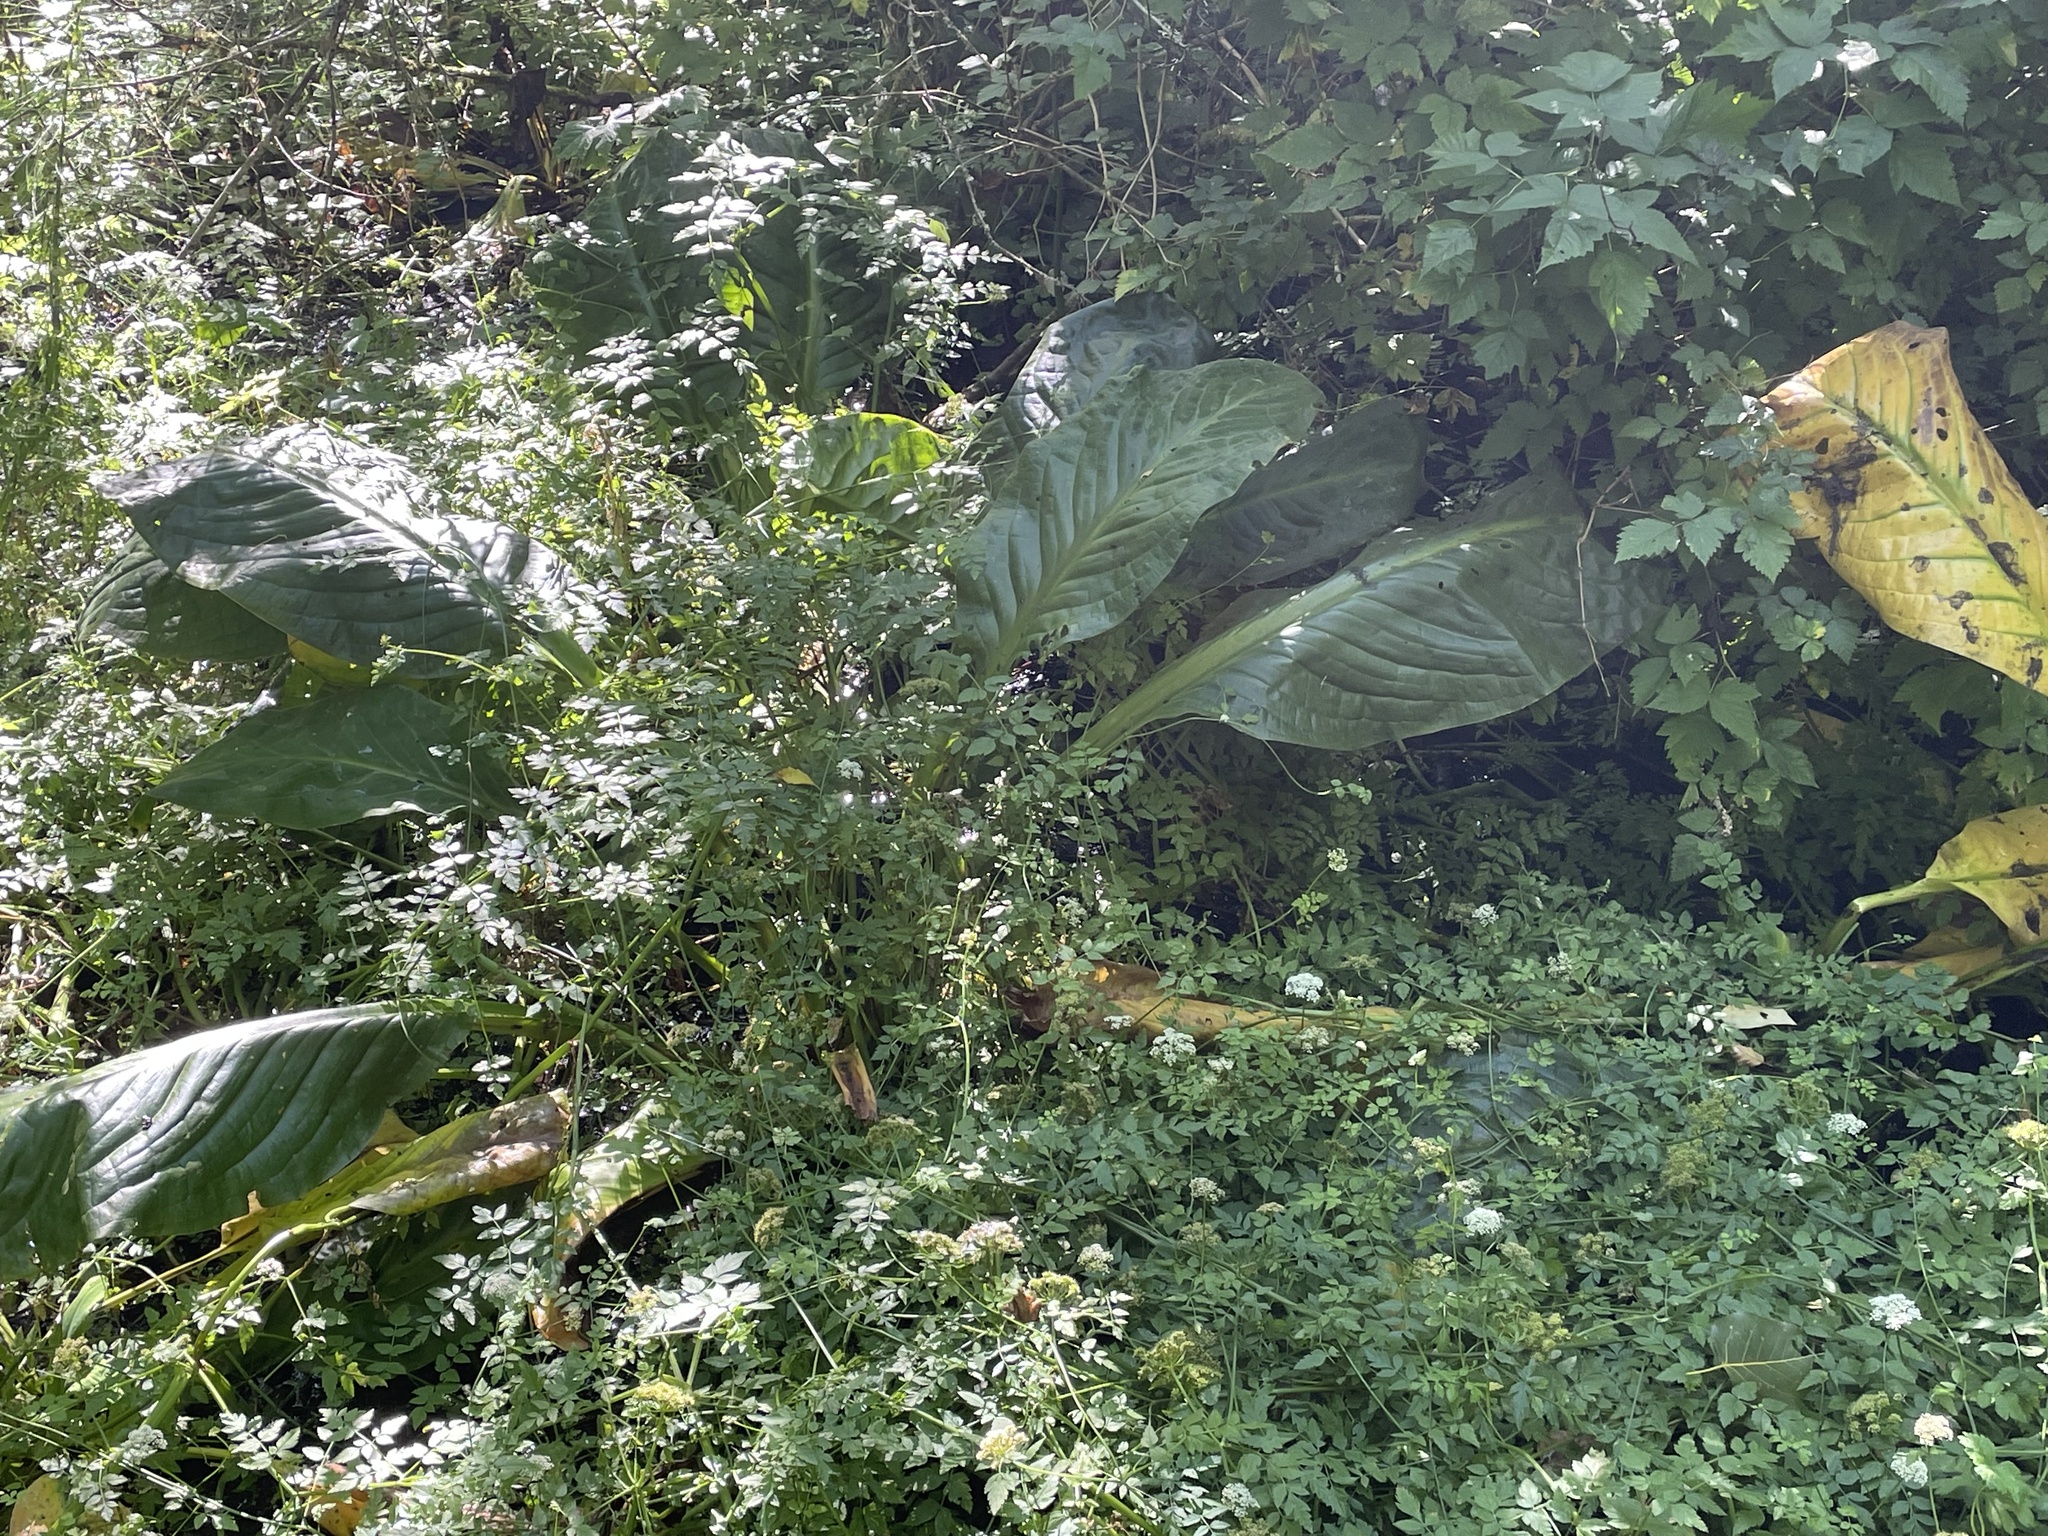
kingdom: Plantae
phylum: Tracheophyta
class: Liliopsida
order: Alismatales
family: Araceae
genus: Lysichiton
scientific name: Lysichiton americanus
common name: American skunk cabbage
